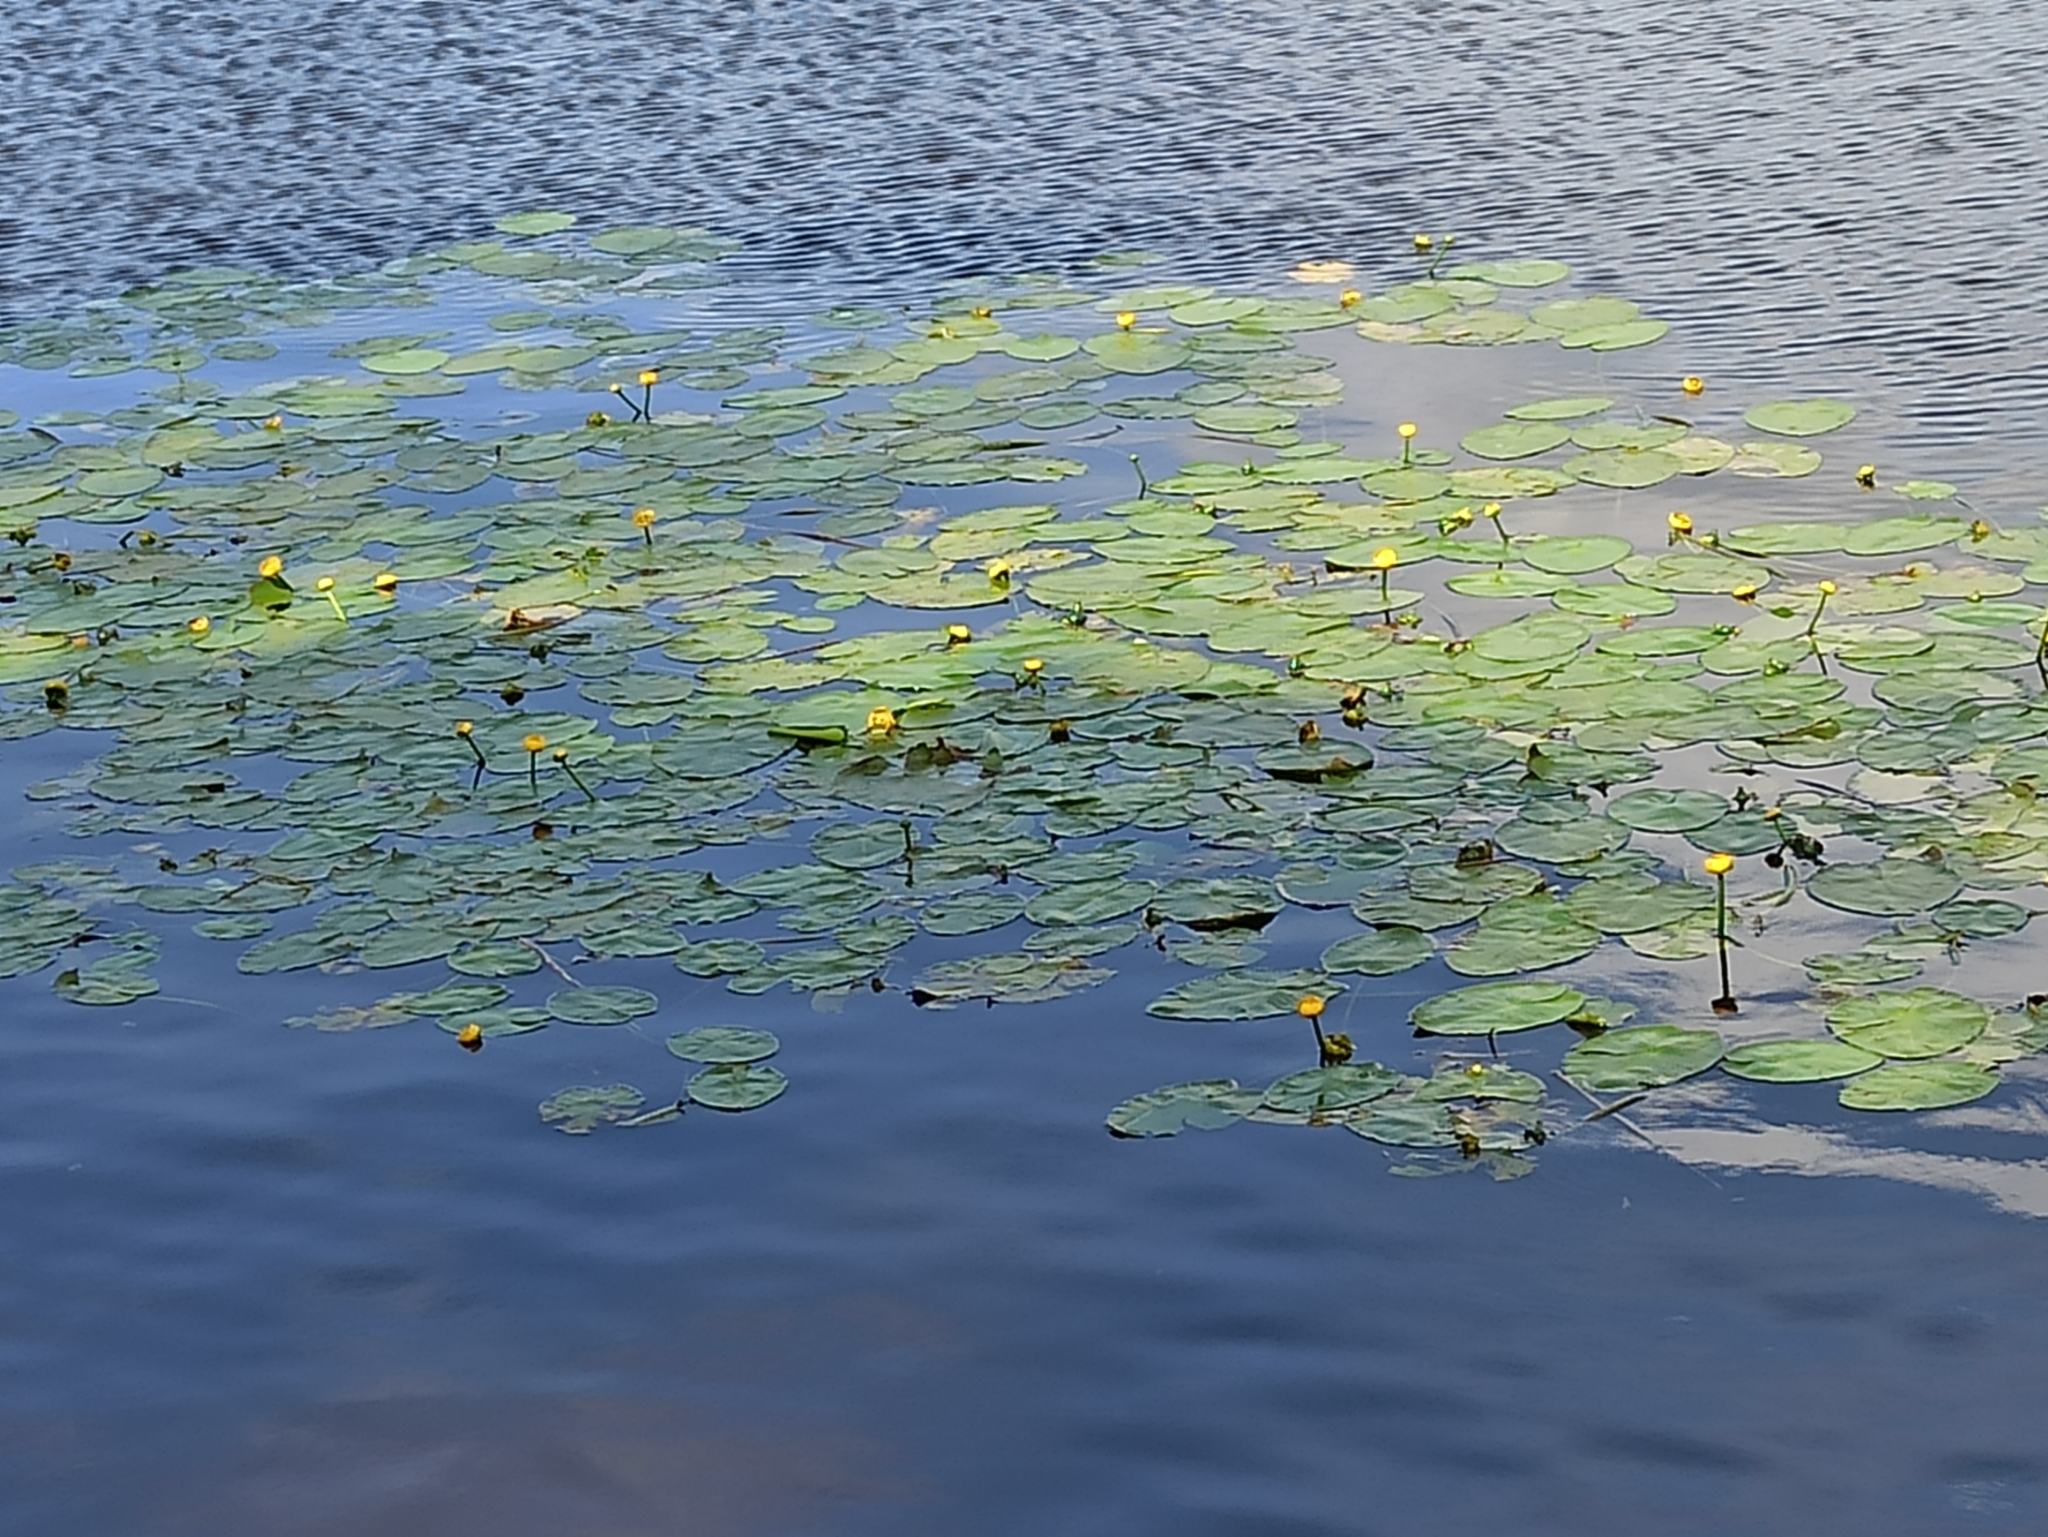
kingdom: Plantae
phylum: Tracheophyta
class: Magnoliopsida
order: Nymphaeales
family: Nymphaeaceae
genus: Nuphar
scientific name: Nuphar lutea
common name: Yellow water-lily
